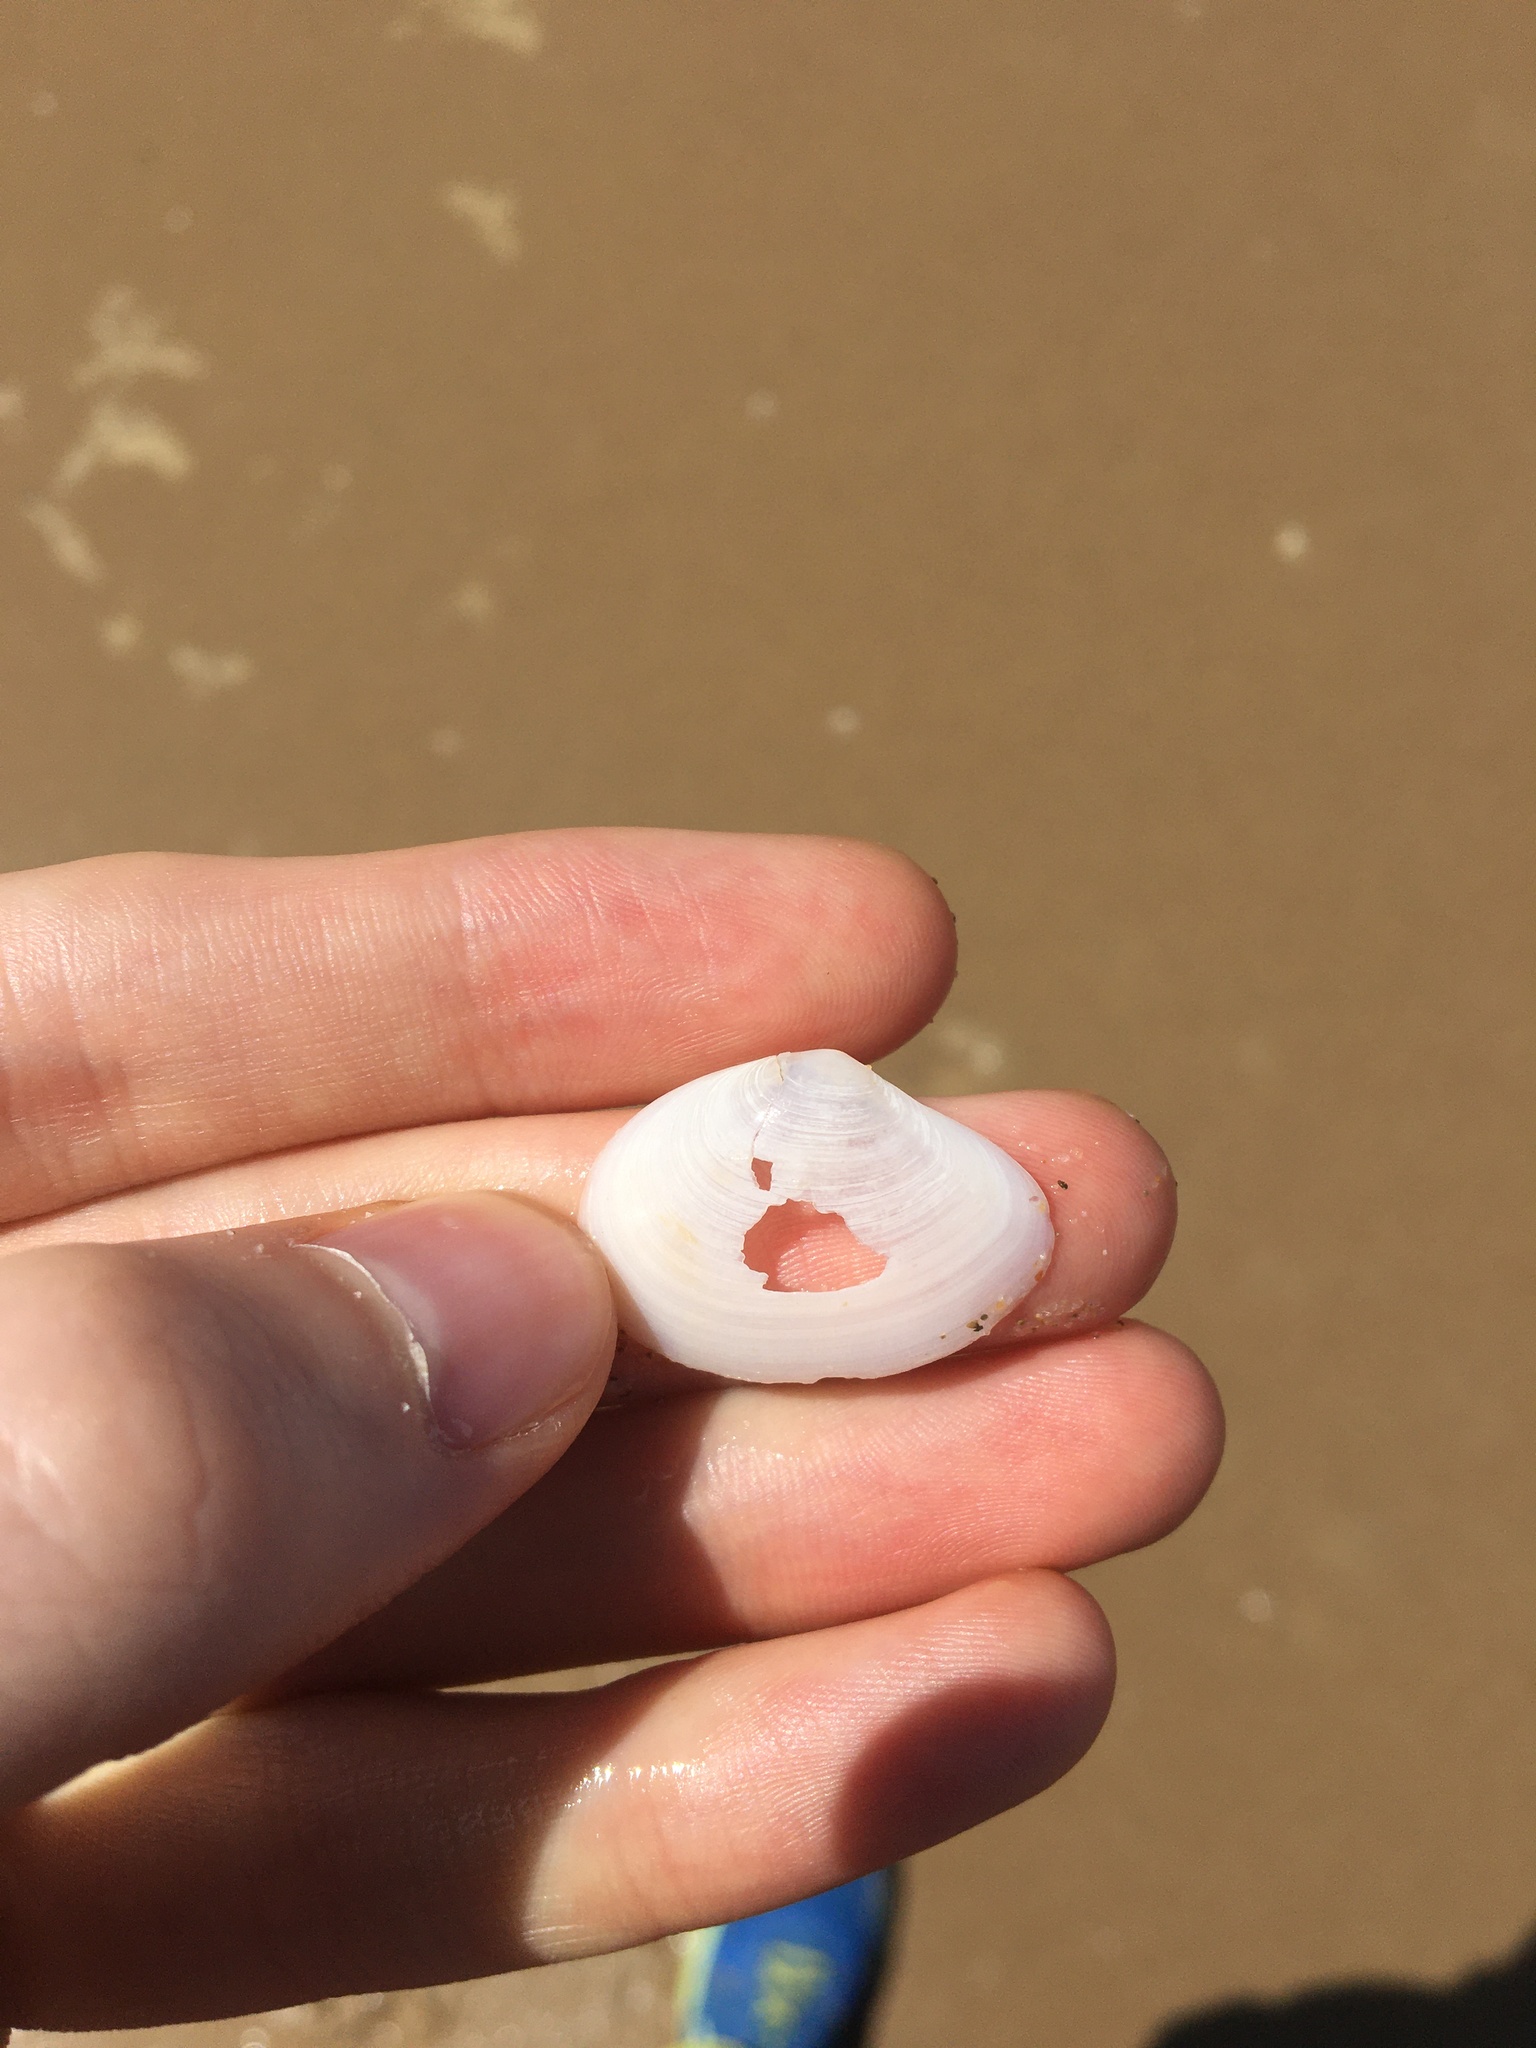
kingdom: Animalia
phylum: Mollusca
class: Bivalvia
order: Cardiida
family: Tellinidae
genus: Macomona
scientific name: Macomona deltoidalis
